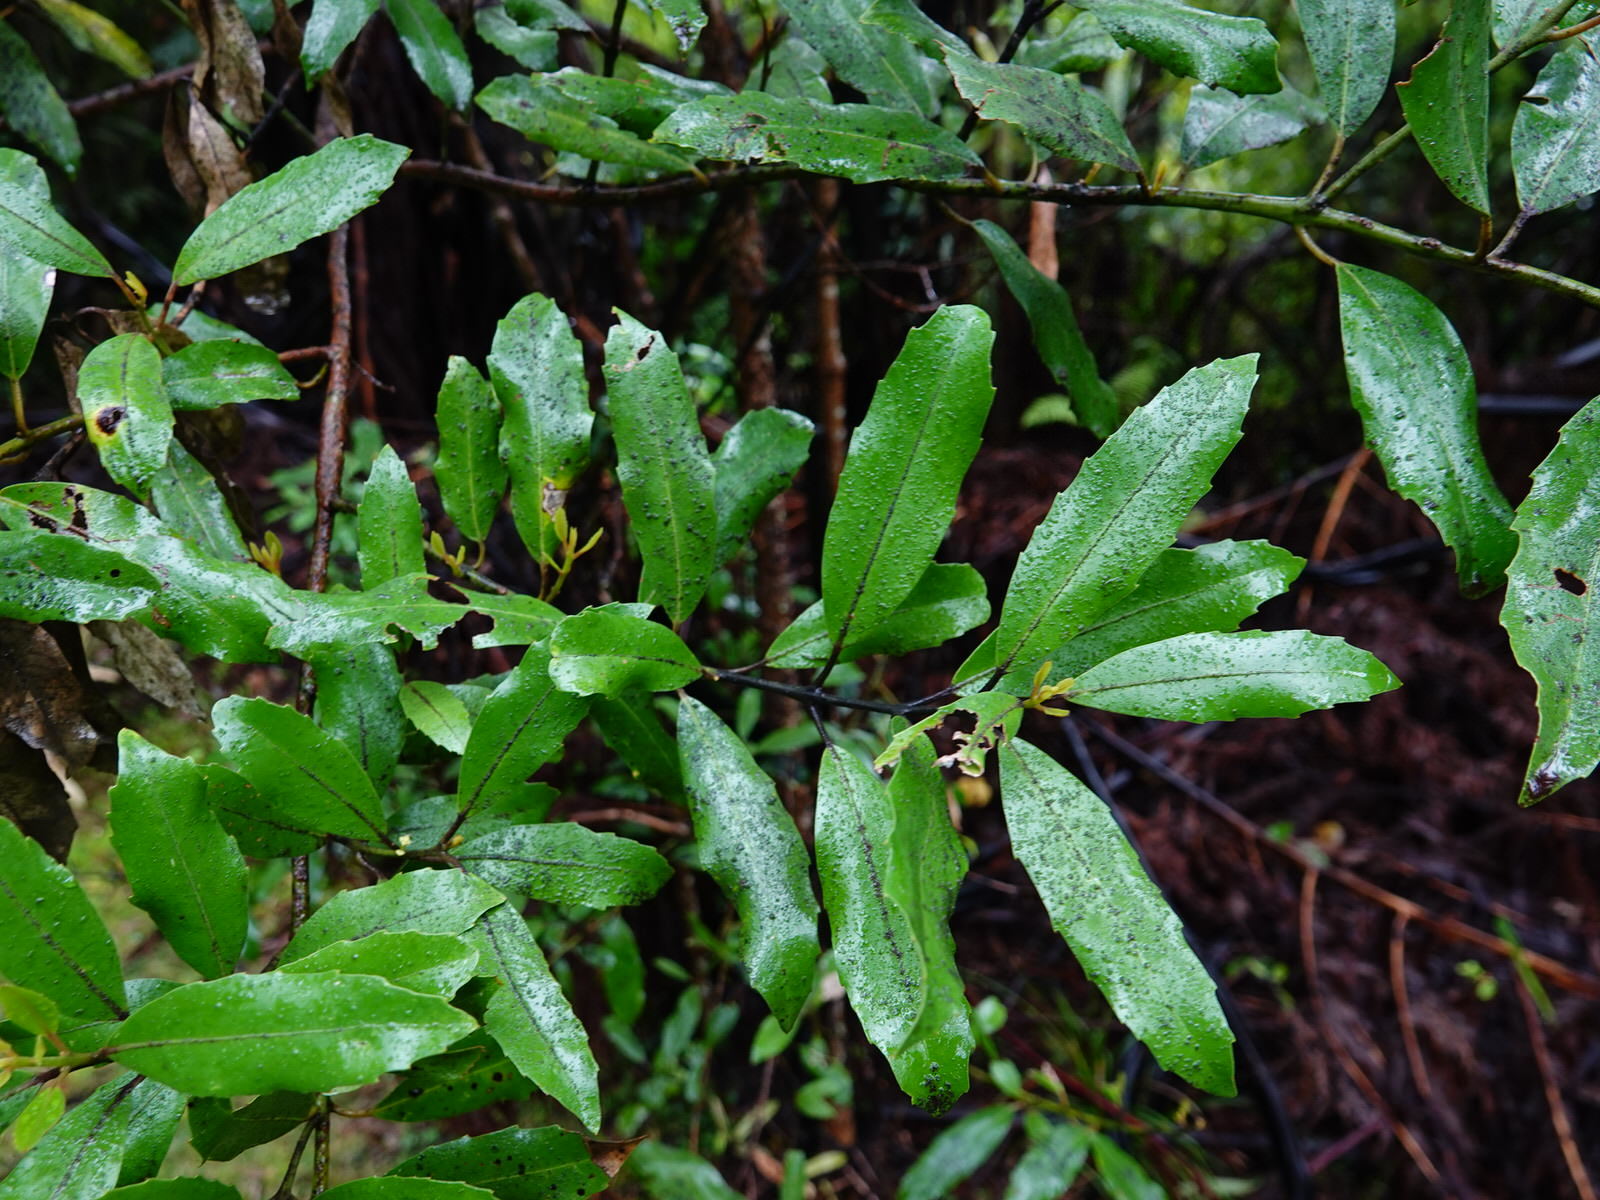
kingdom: Plantae
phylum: Tracheophyta
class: Magnoliopsida
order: Laurales
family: Monimiaceae
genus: Hedycarya
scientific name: Hedycarya arborea
